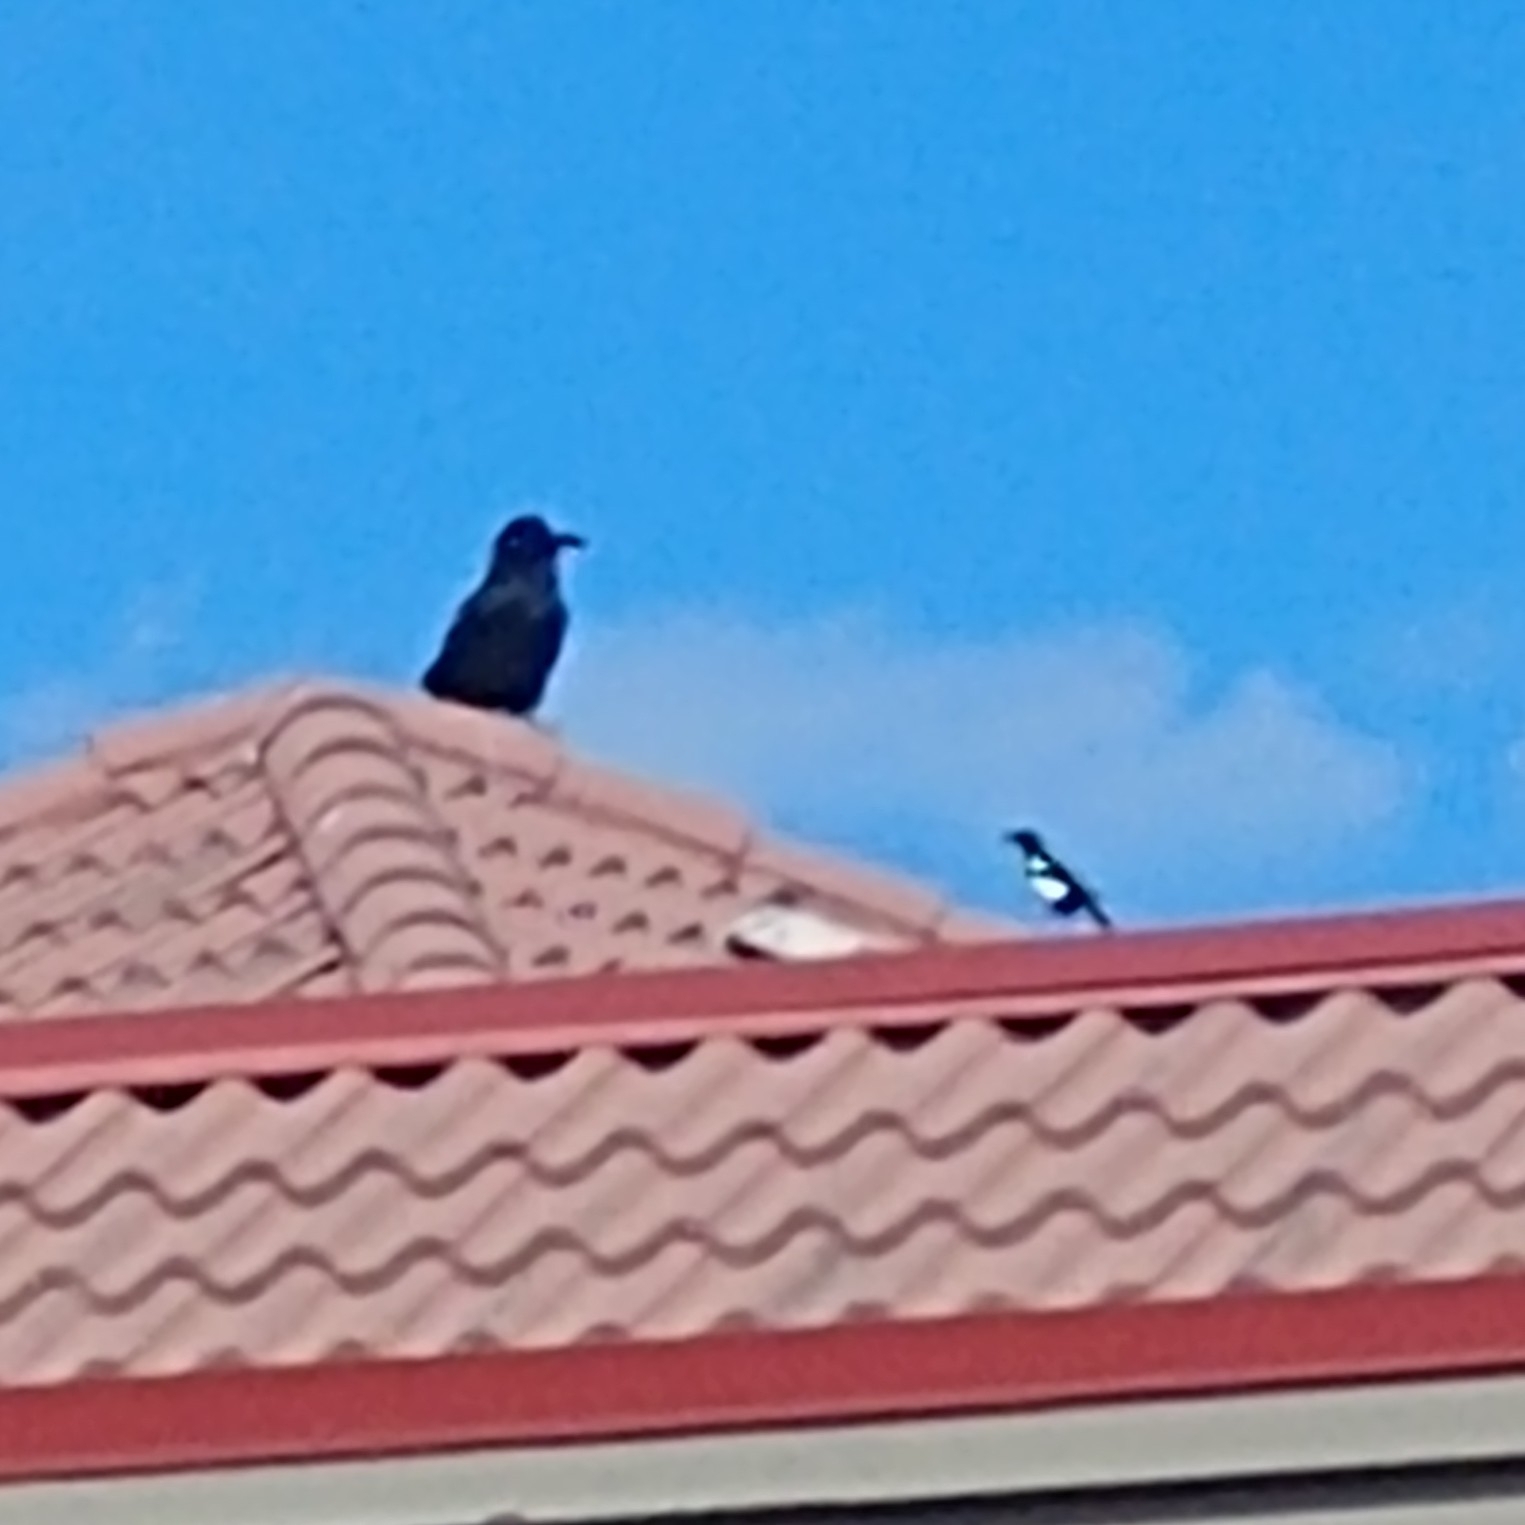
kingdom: Animalia
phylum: Chordata
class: Aves
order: Passeriformes
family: Corvidae
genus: Corvus
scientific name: Corvus corax
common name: Common raven
